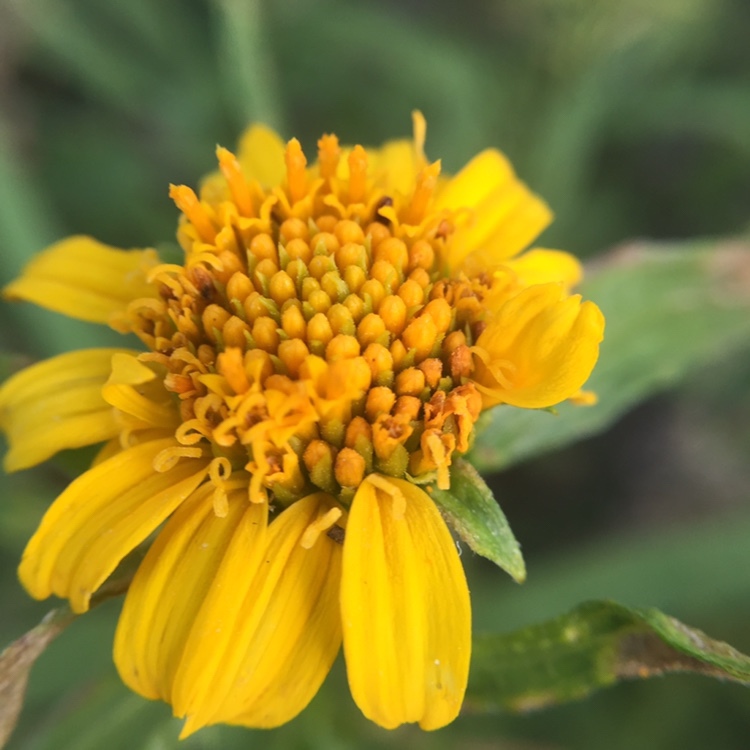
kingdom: Plantae
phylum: Tracheophyta
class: Magnoliopsida
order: Asterales
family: Asteraceae
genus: Pascalia
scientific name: Pascalia glauca
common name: Beach creeping oxeye
